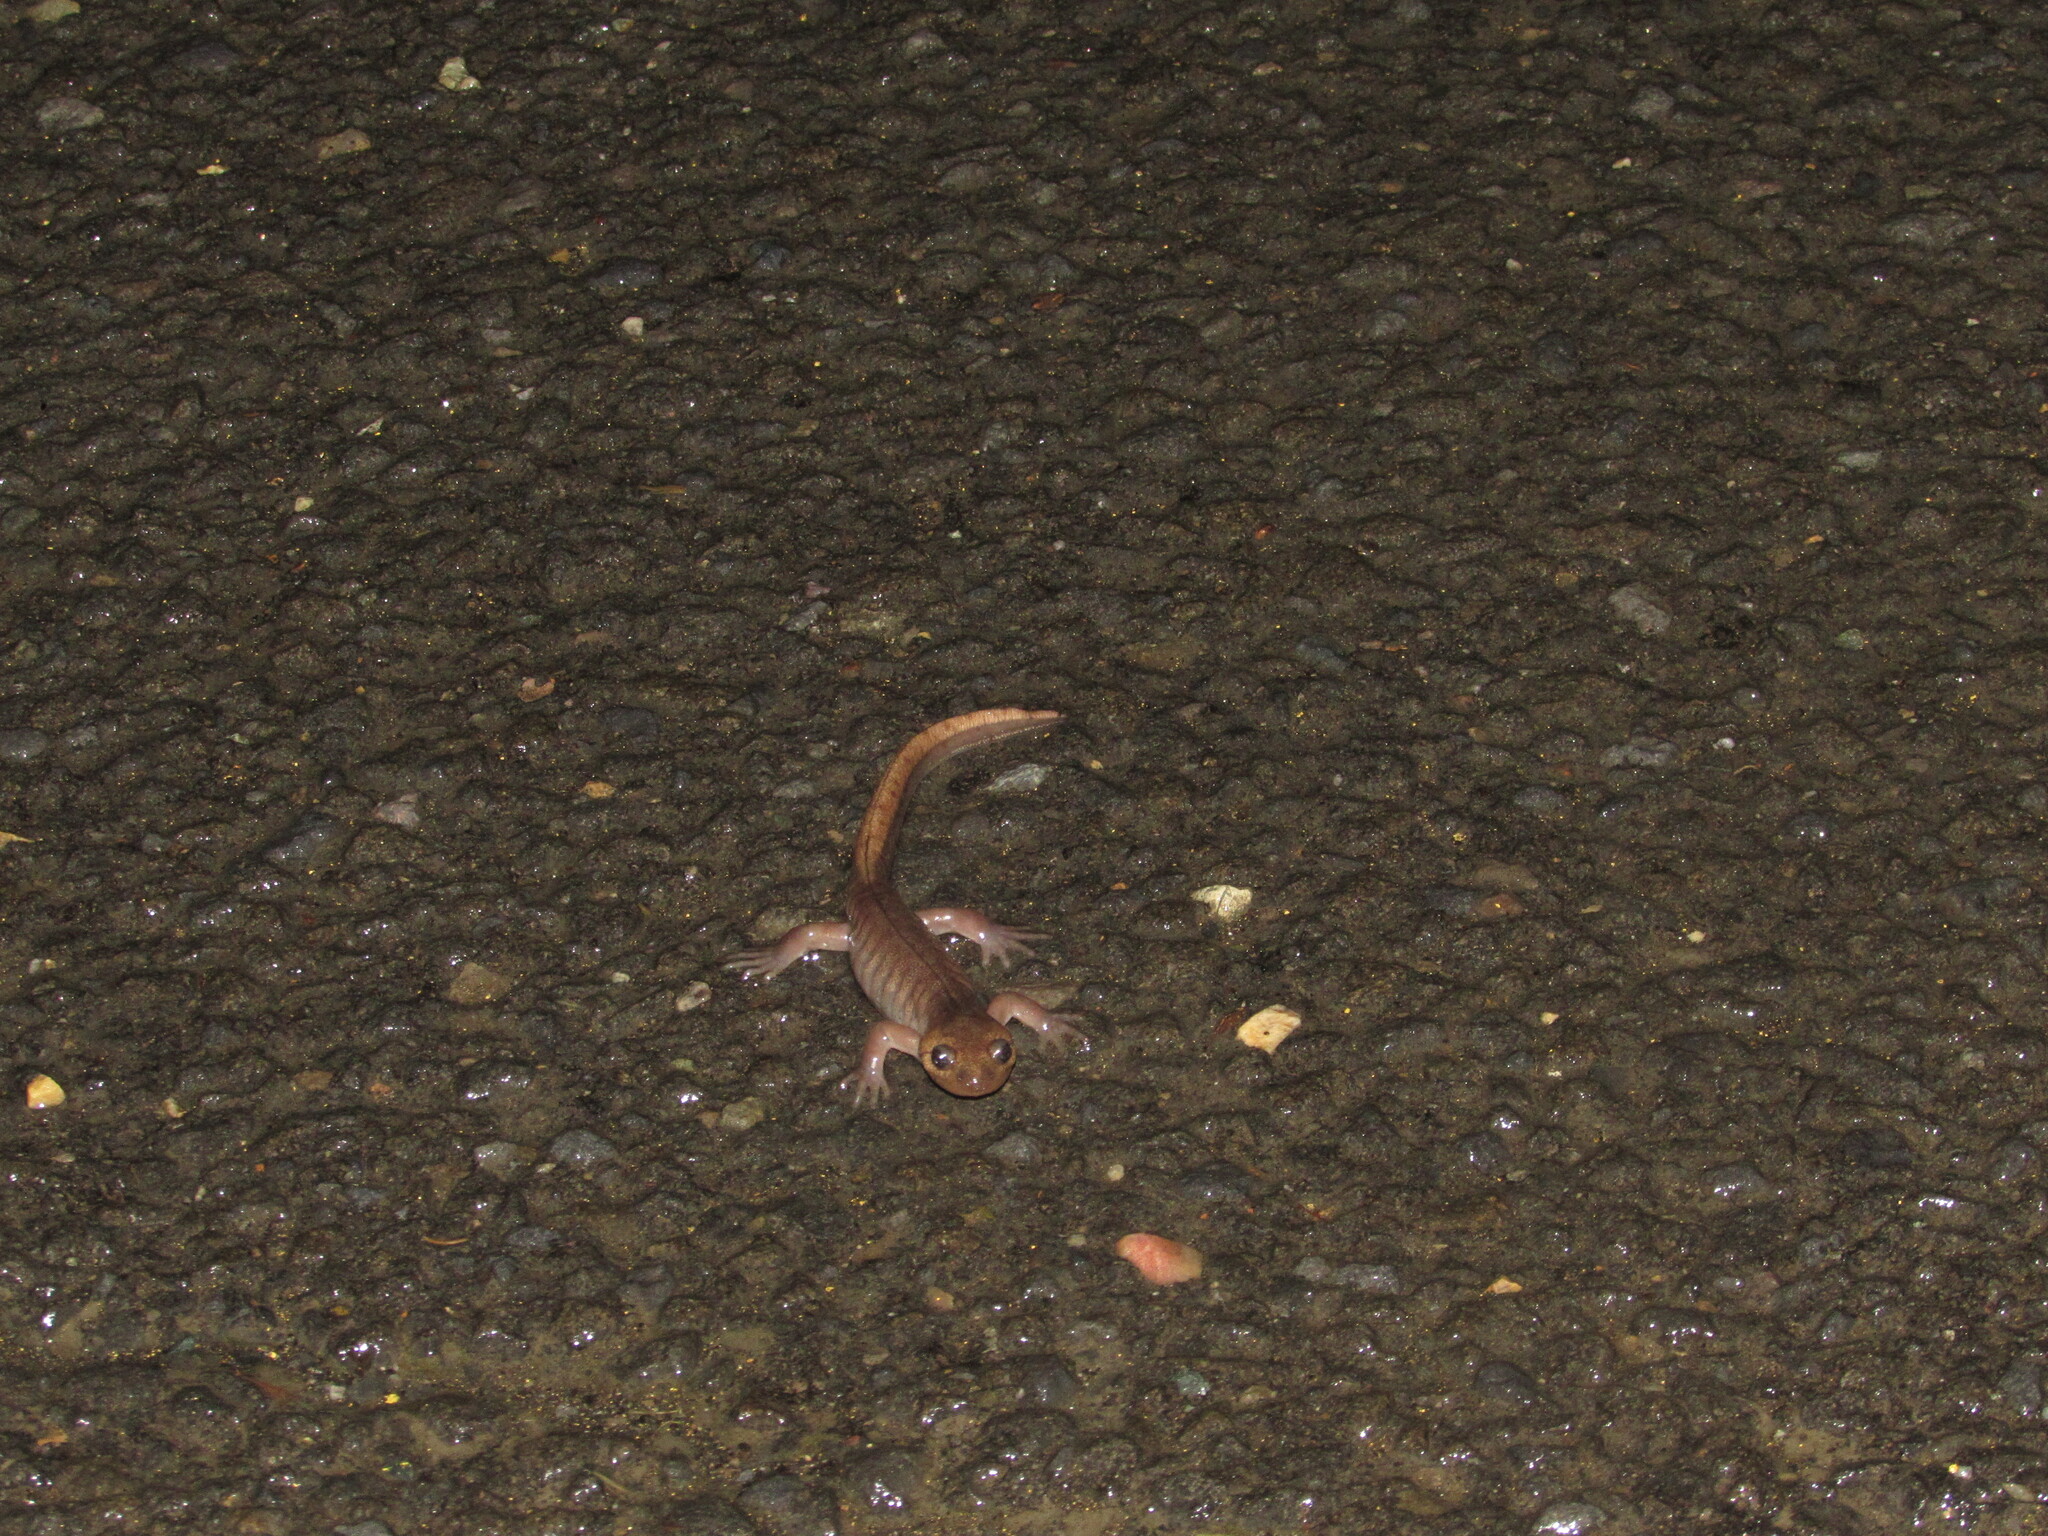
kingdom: Animalia
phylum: Chordata
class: Amphibia
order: Caudata
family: Ambystomatidae
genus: Ambystoma
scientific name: Ambystoma gracile
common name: Northwestern salamander
